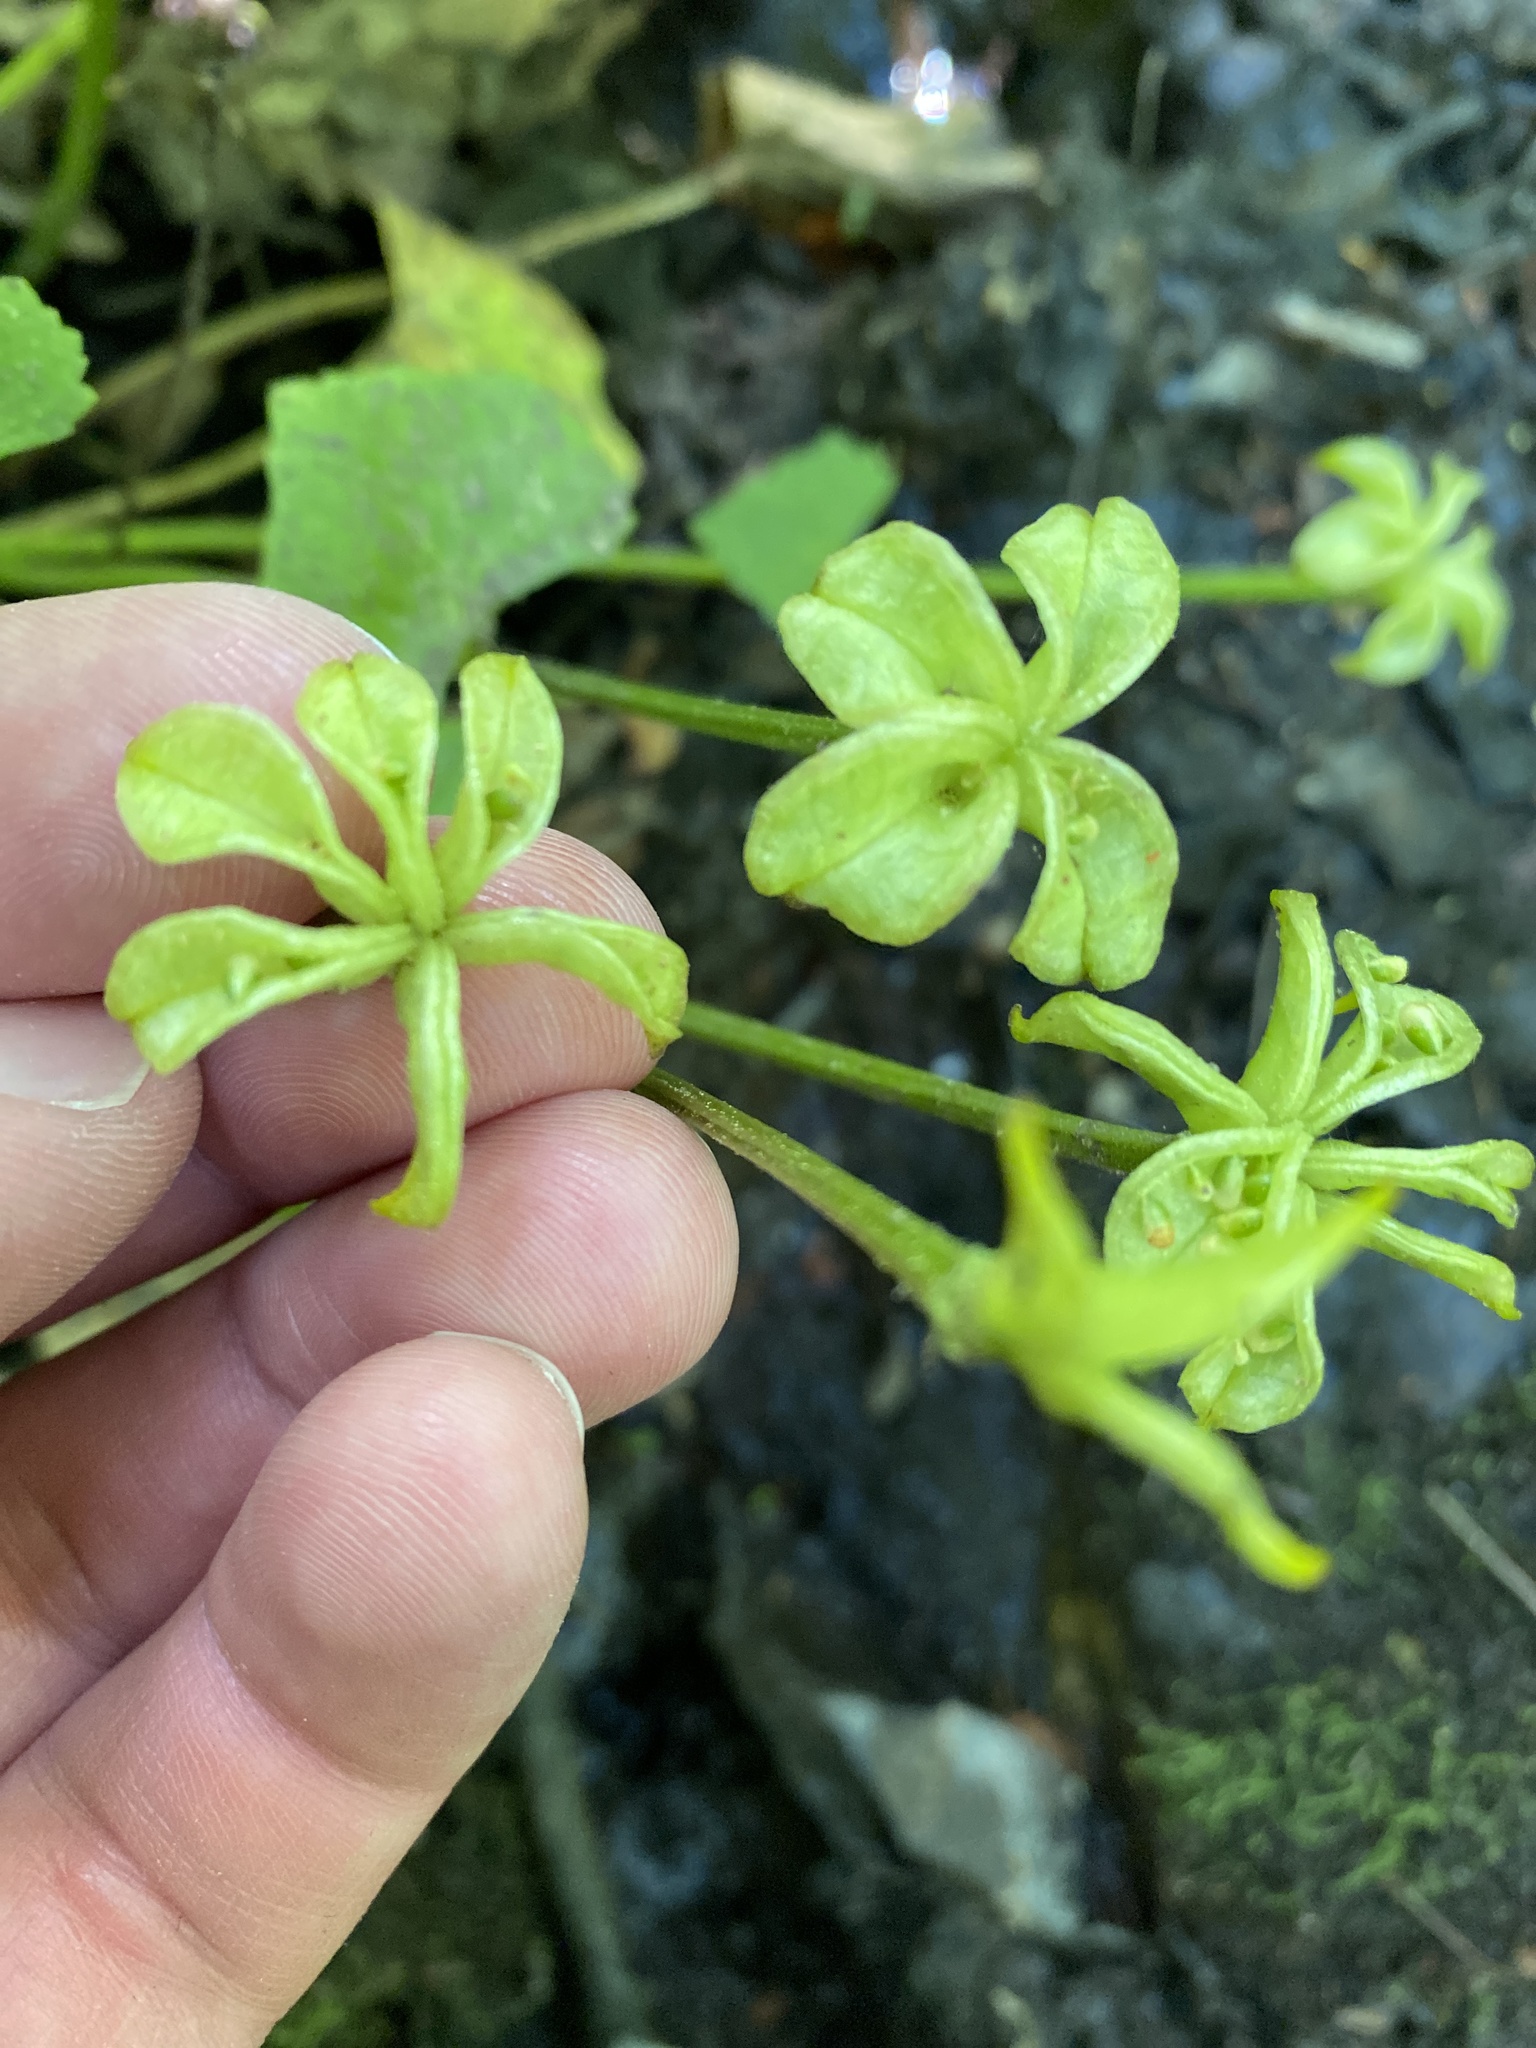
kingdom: Plantae
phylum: Tracheophyta
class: Magnoliopsida
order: Ranunculales
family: Ranunculaceae
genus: Caltha
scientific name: Caltha palustris
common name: Marsh marigold
